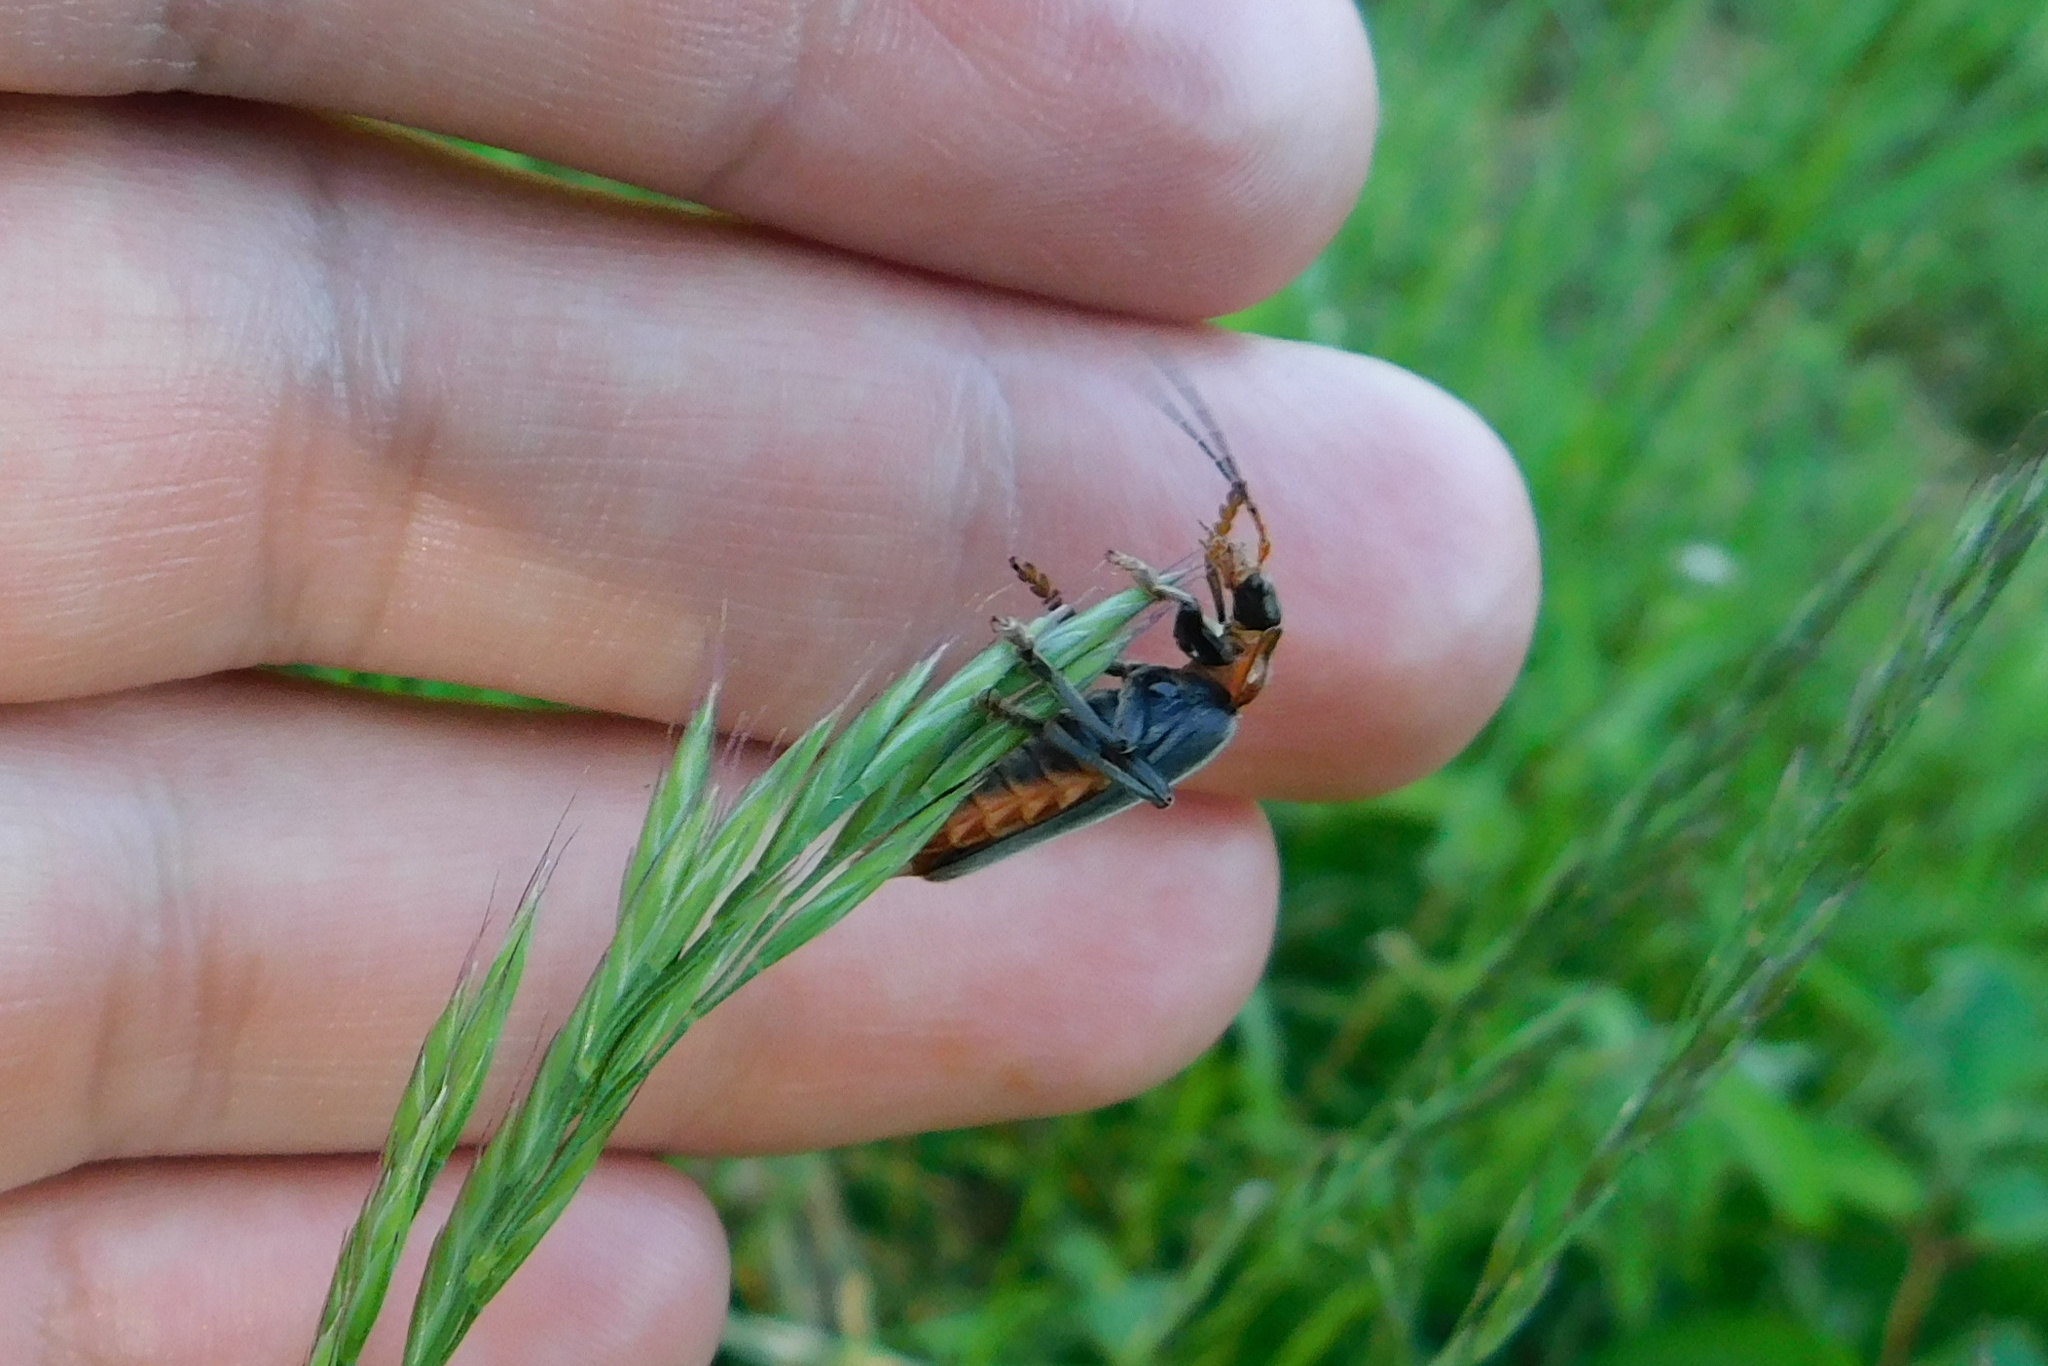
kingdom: Animalia
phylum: Arthropoda
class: Insecta
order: Coleoptera
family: Cantharidae
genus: Cantharis
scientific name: Cantharis fusca
